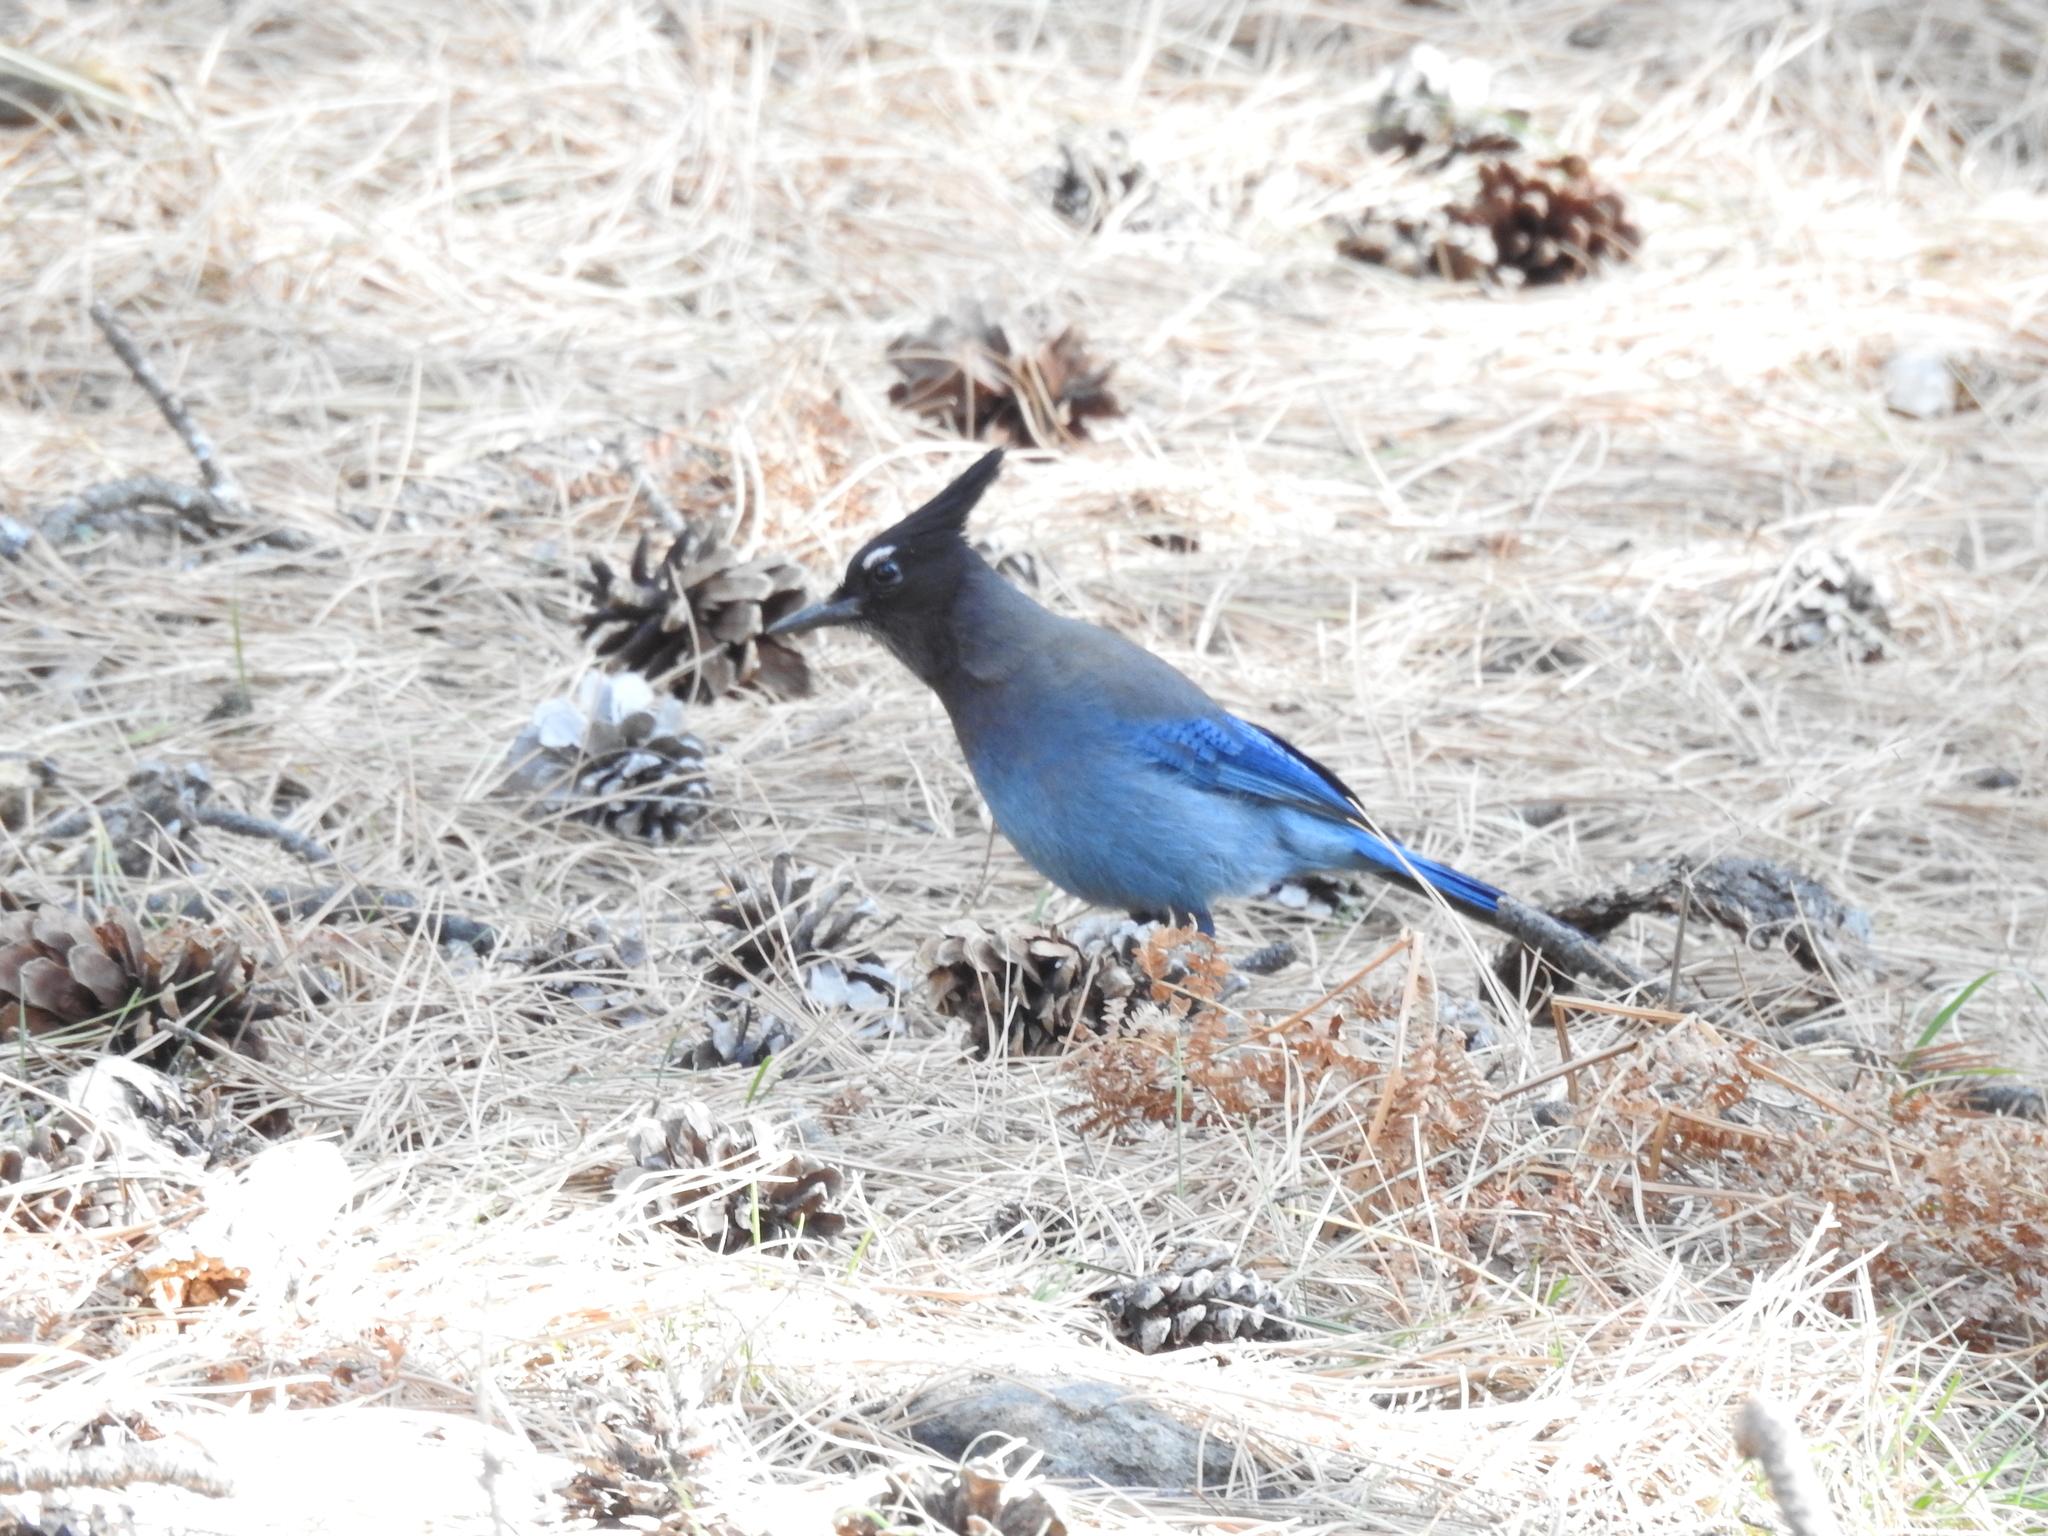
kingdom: Animalia
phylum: Chordata
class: Aves
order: Passeriformes
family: Corvidae
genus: Cyanocitta
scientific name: Cyanocitta stelleri
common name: Steller's jay
